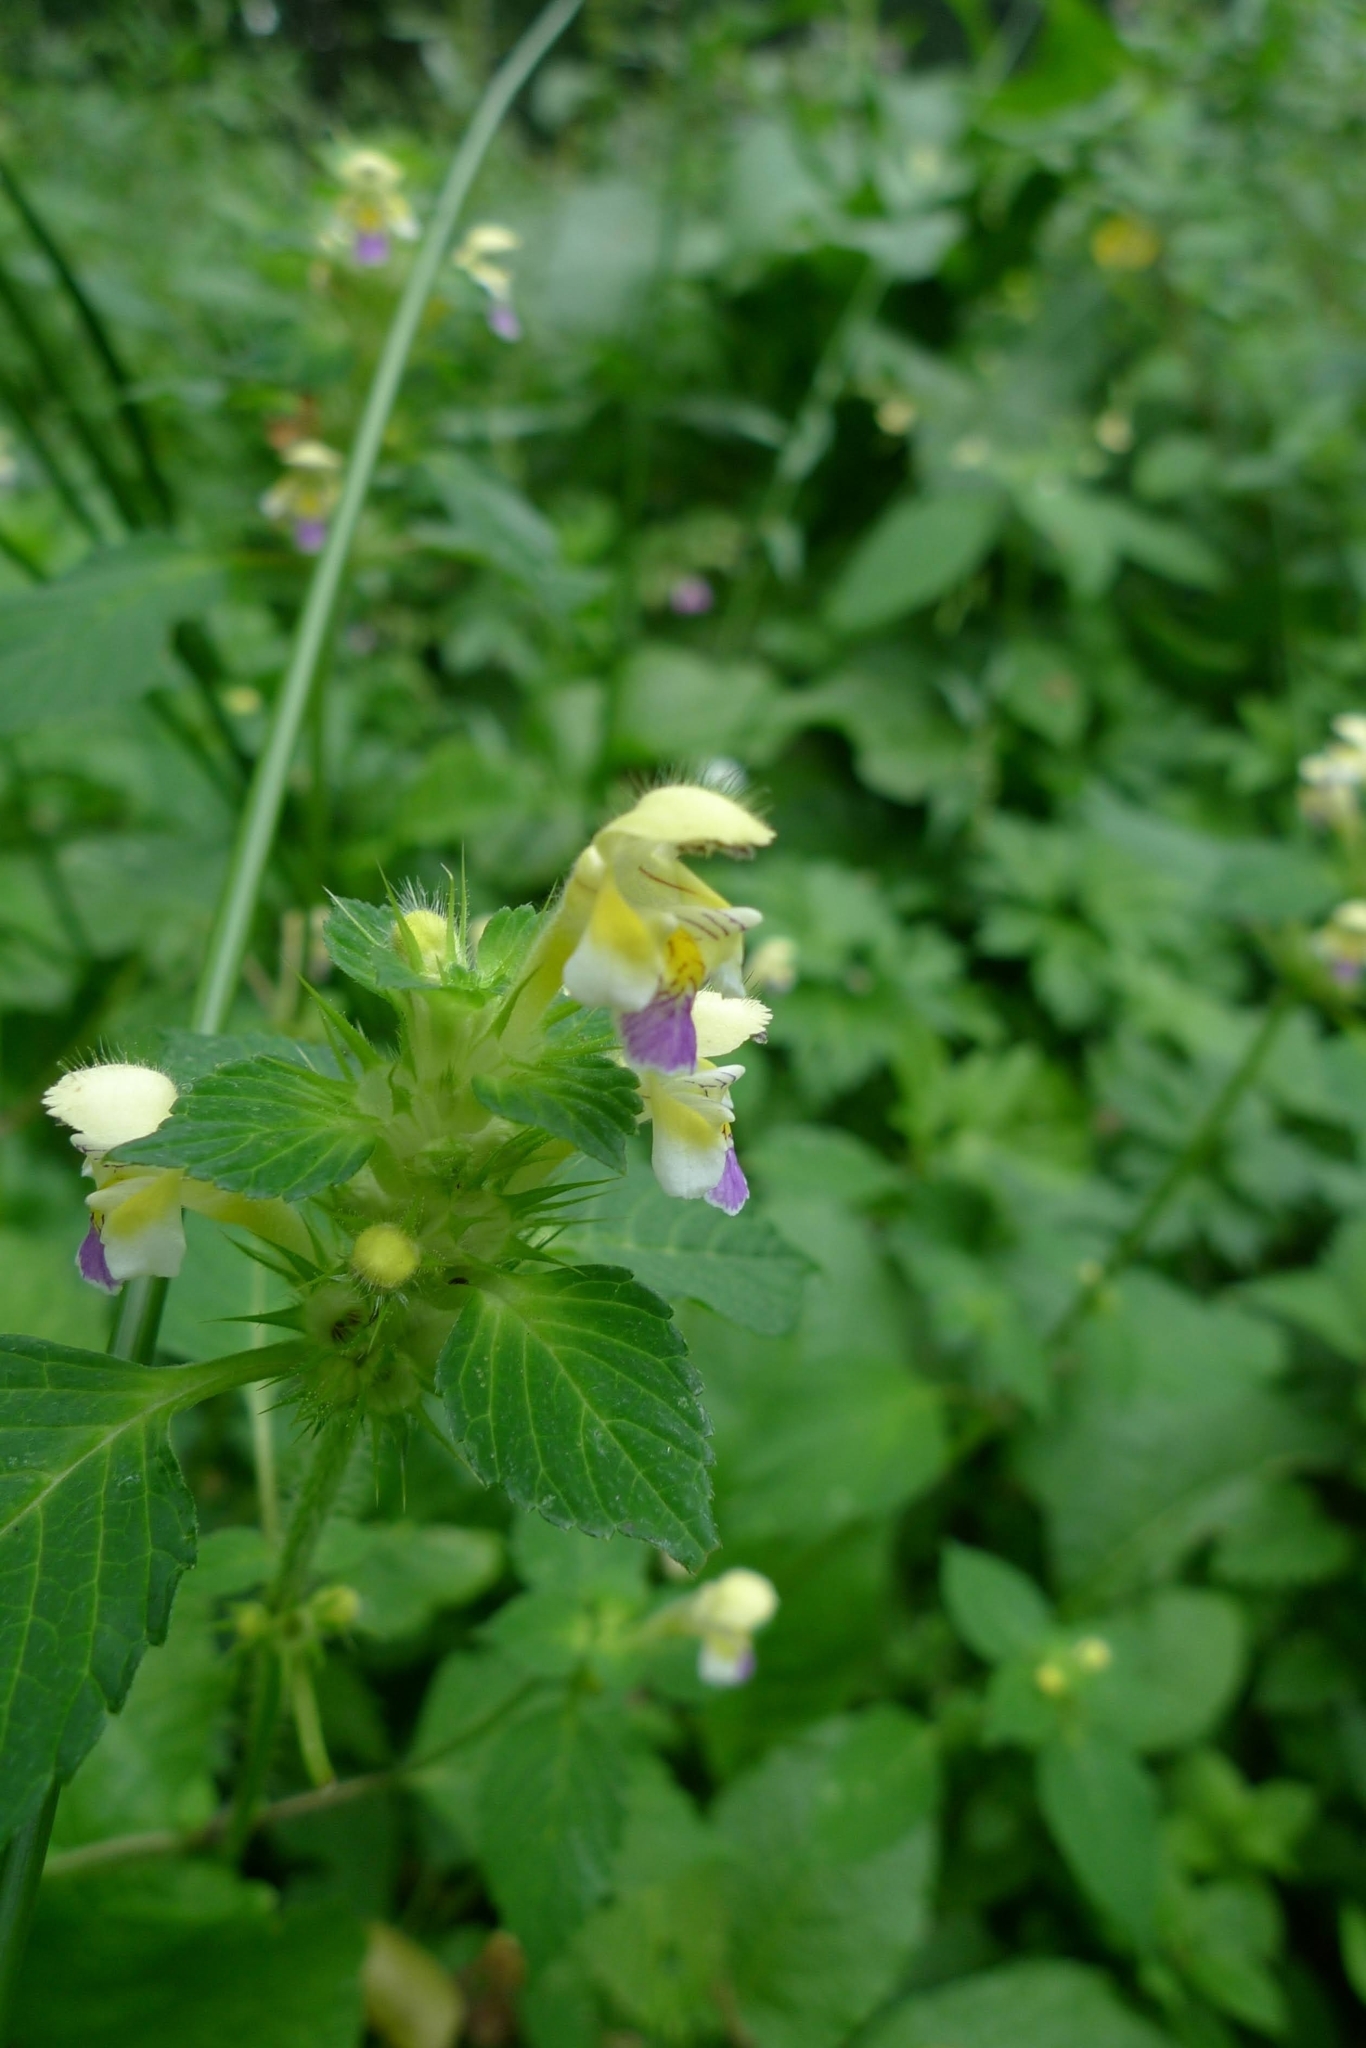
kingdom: Plantae
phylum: Tracheophyta
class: Magnoliopsida
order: Lamiales
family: Lamiaceae
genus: Galeopsis
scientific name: Galeopsis speciosa
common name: Large-flowered hemp-nettle
